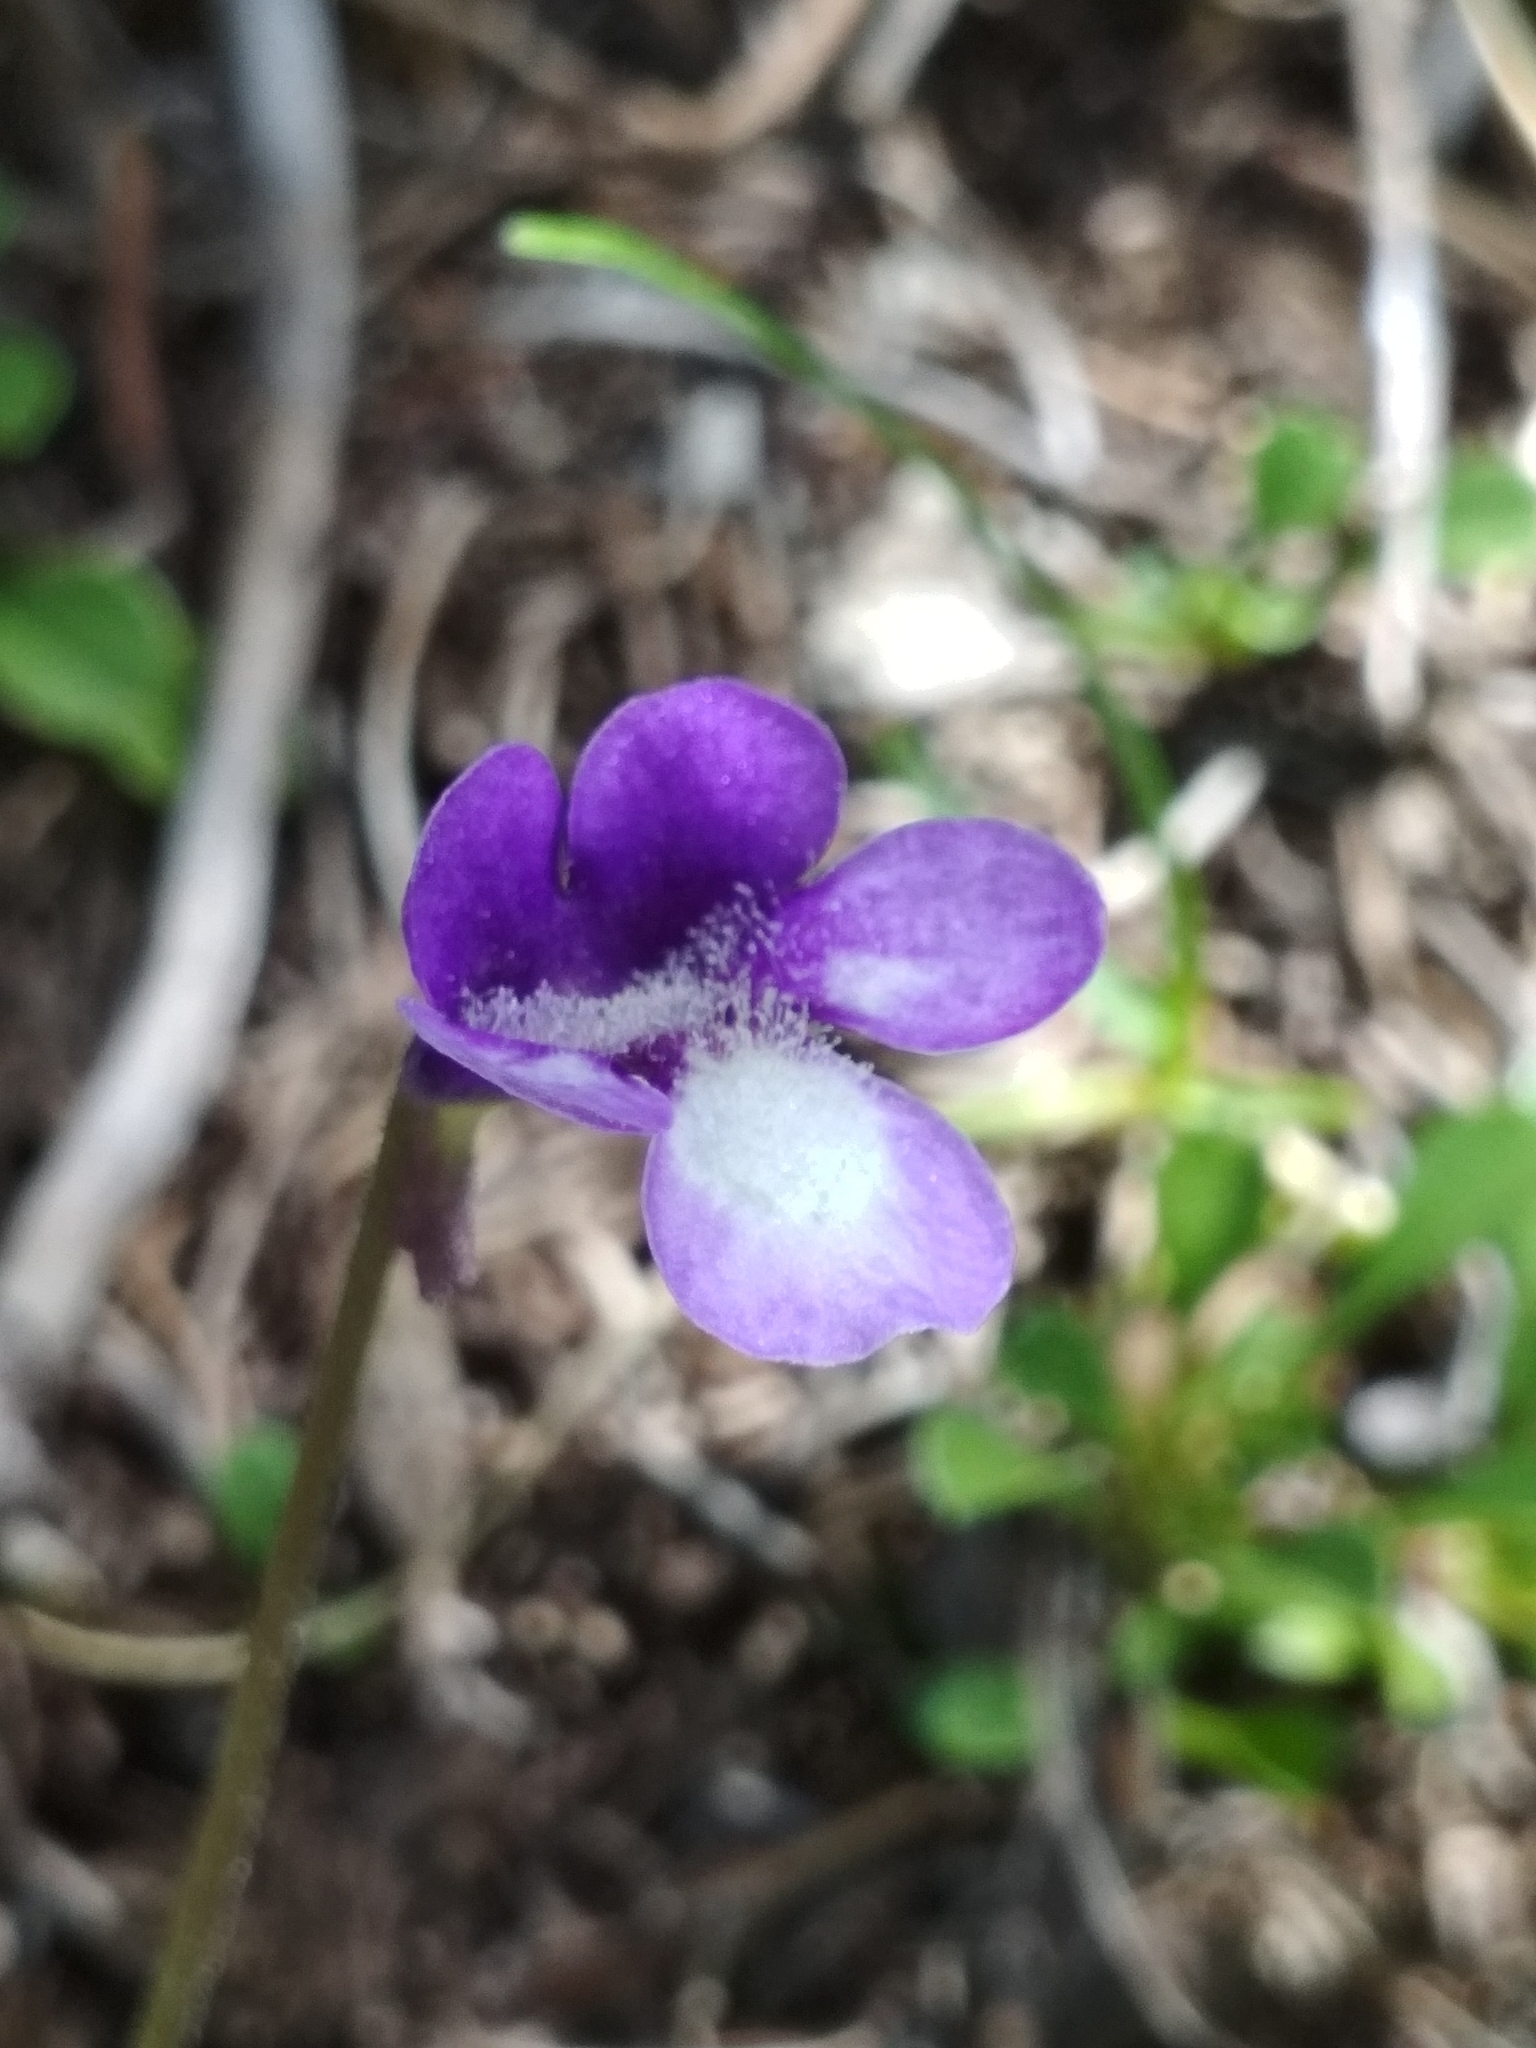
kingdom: Plantae
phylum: Tracheophyta
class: Magnoliopsida
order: Lamiales
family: Lentibulariaceae
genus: Pinguicula
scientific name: Pinguicula leptoceras
